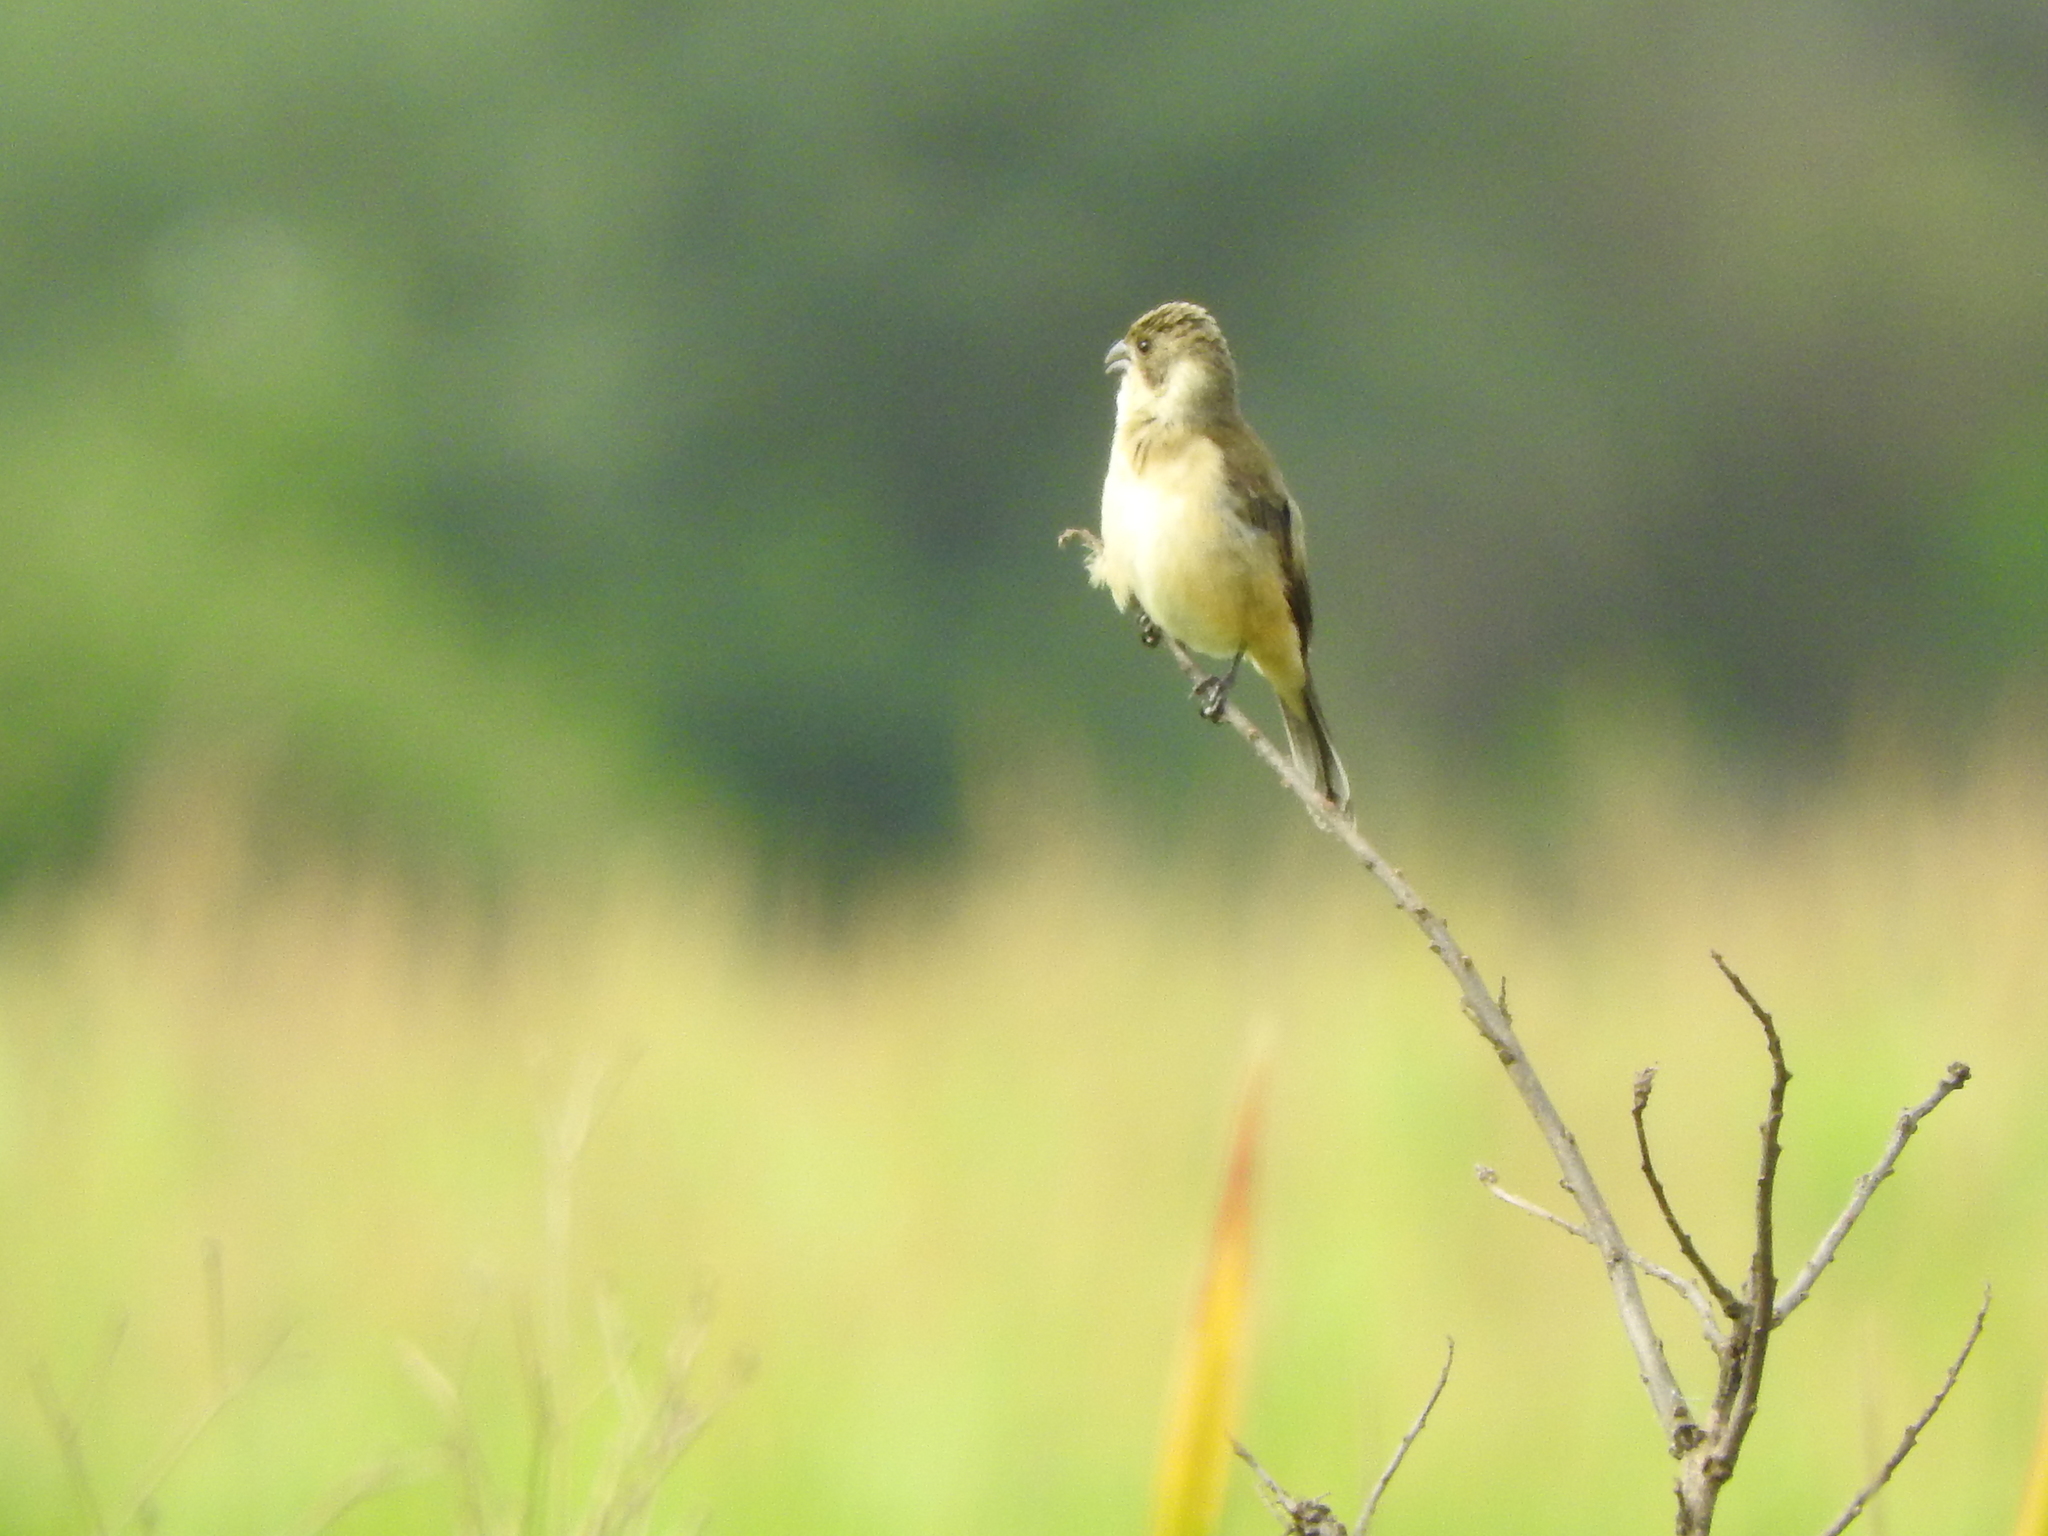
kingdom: Animalia
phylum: Chordata
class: Aves
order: Passeriformes
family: Thraupidae
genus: Sporophila
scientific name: Sporophila torqueola
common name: White-collared seedeater
